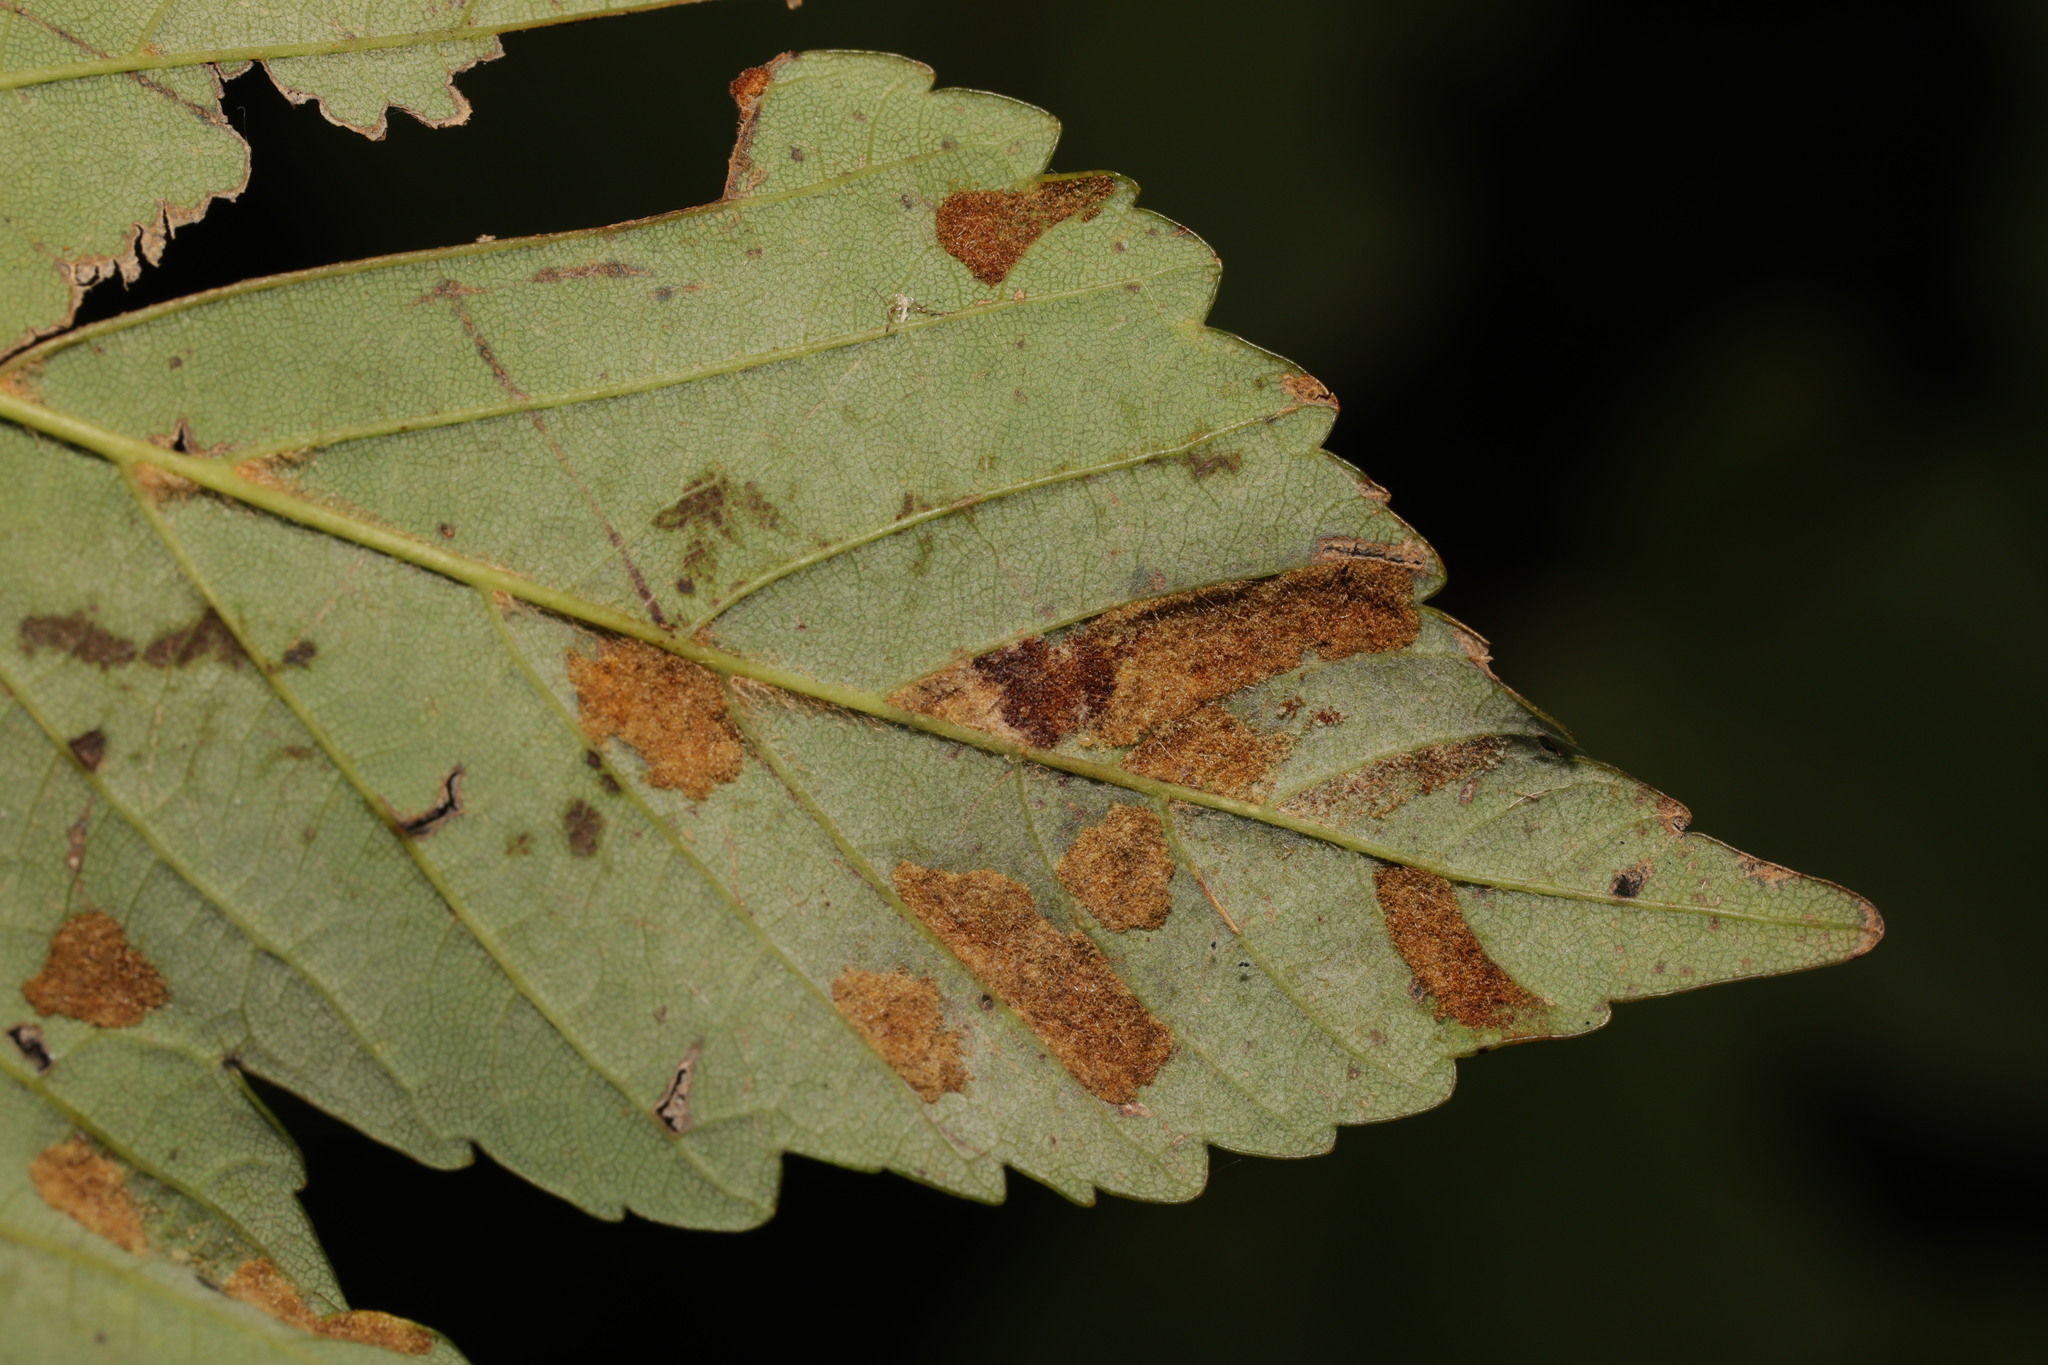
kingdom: Animalia
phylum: Arthropoda
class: Arachnida
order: Trombidiformes
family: Eriophyidae
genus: Aceria
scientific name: Aceria pseudoplatani
